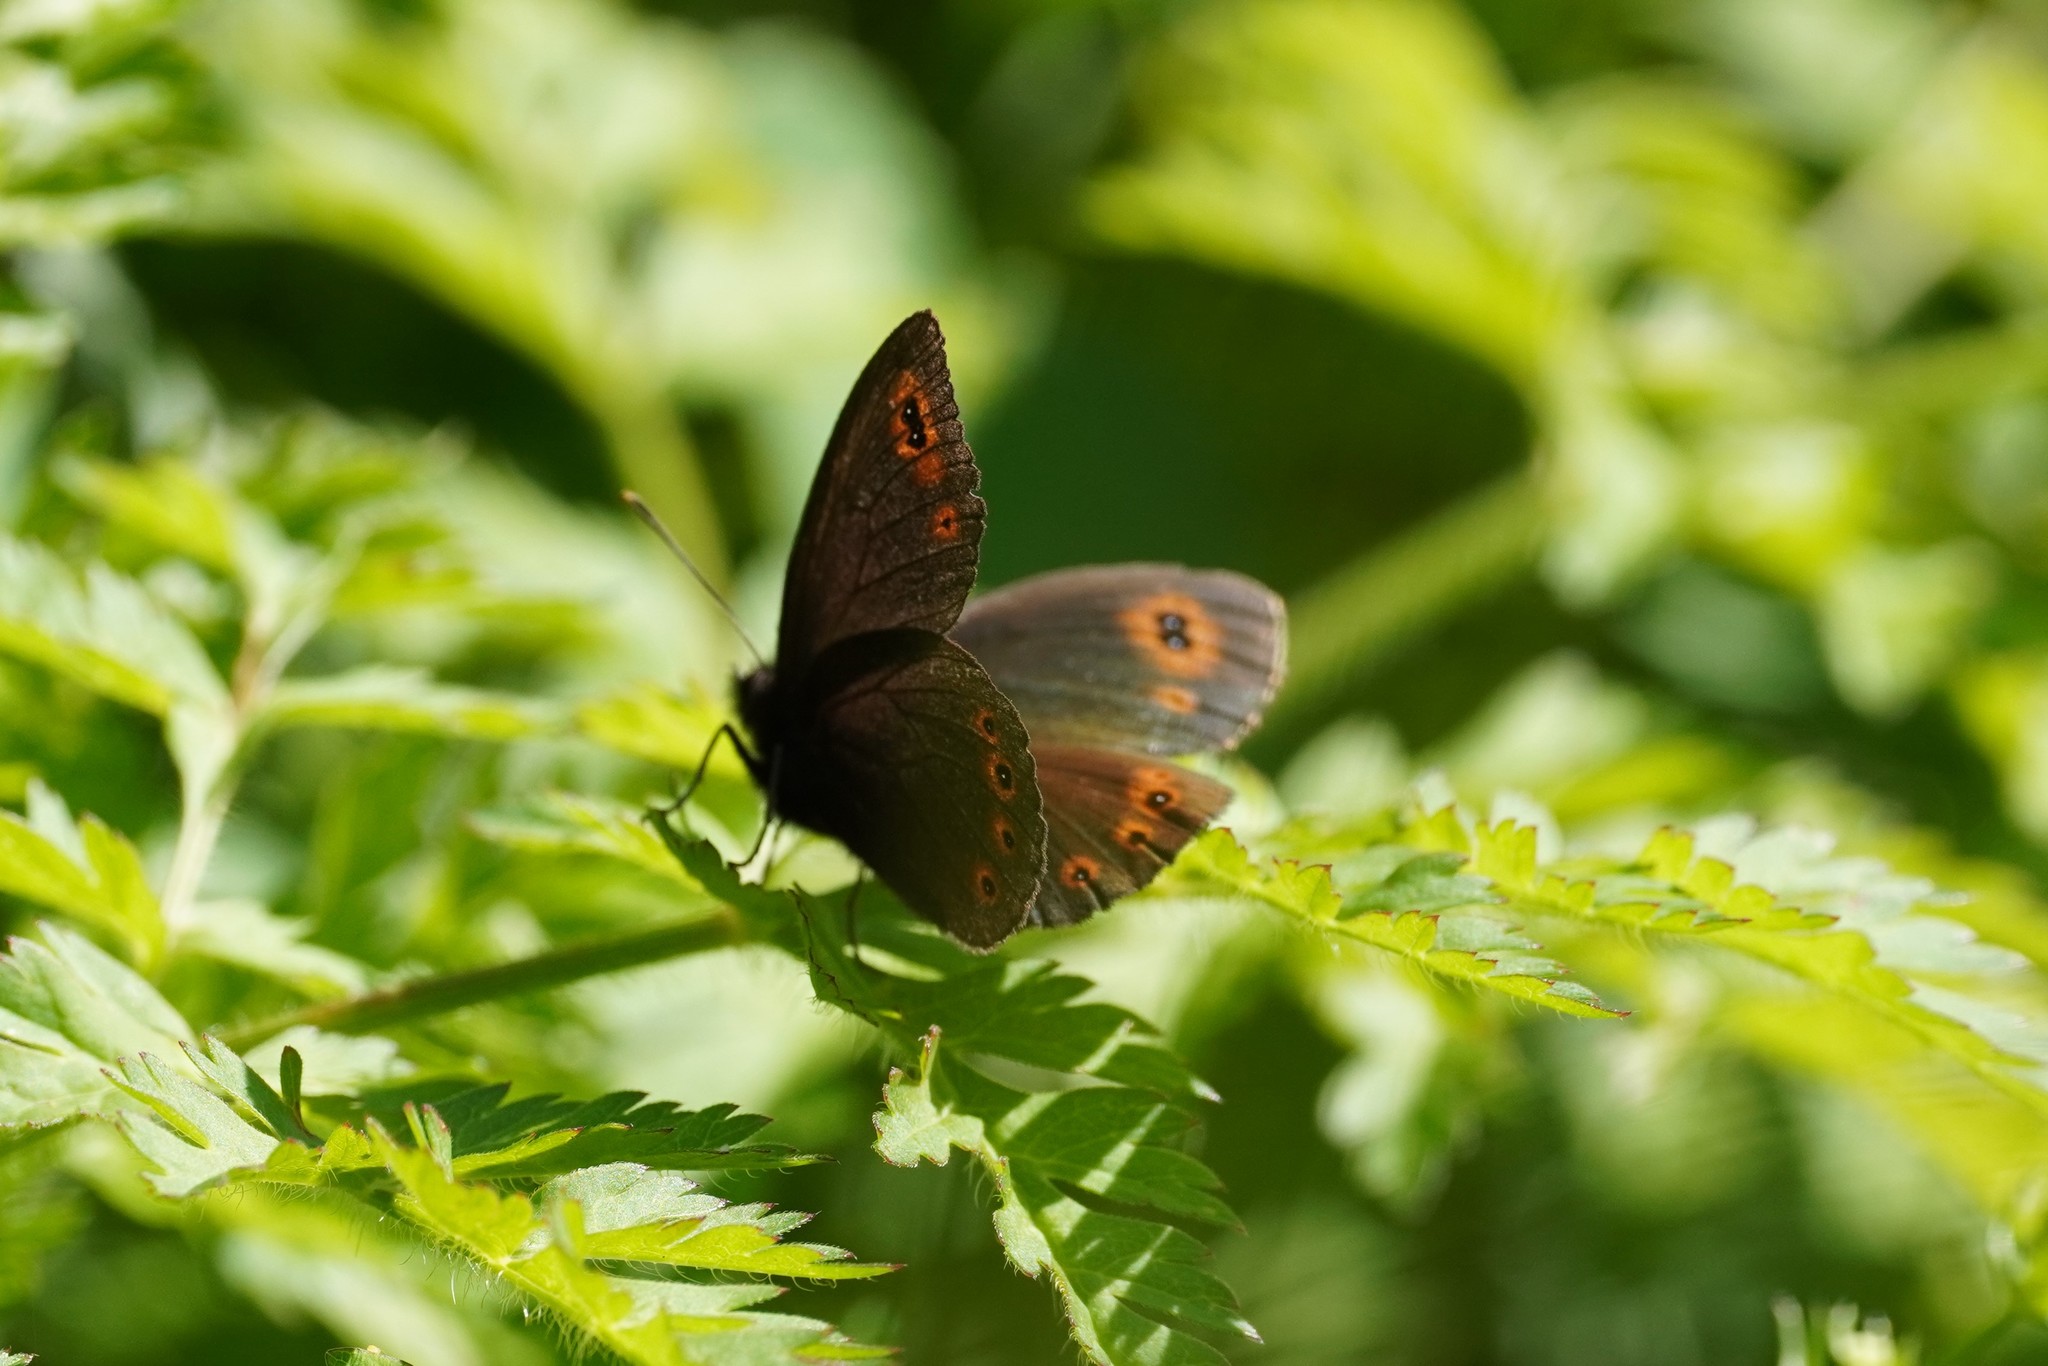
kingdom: Animalia
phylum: Arthropoda
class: Insecta
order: Lepidoptera
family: Nymphalidae
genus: Erebia
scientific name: Erebia medusa
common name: Woodland ringlet
